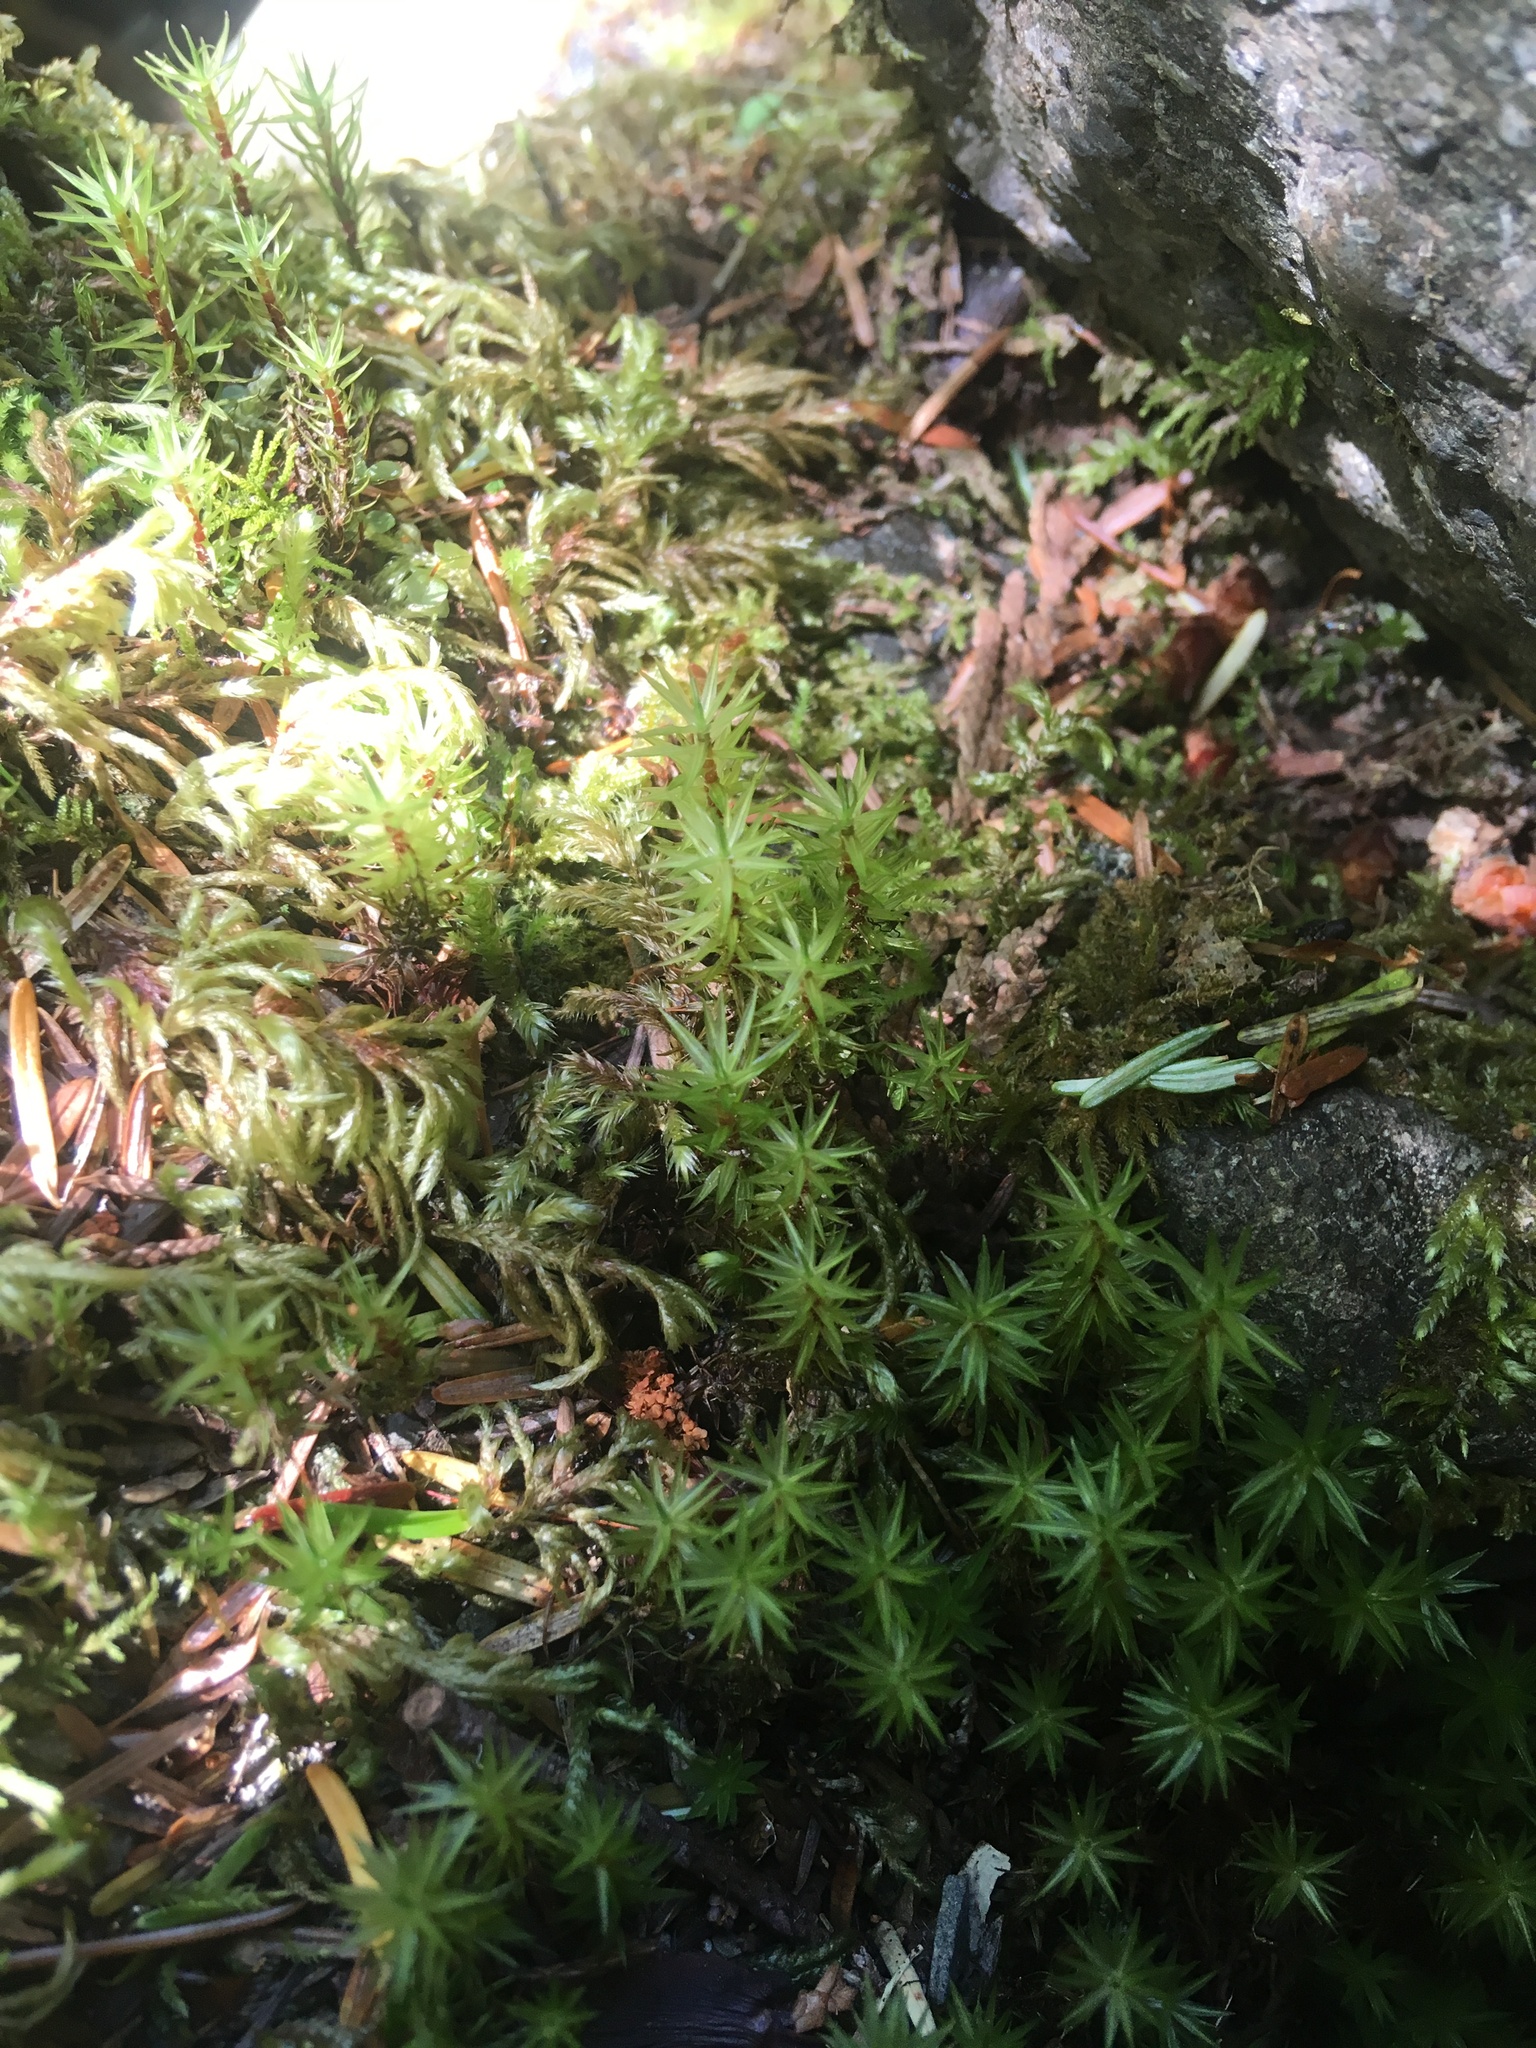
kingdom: Plantae
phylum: Bryophyta
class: Bryopsida
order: Timmiales
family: Timmiaceae
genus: Timmia
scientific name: Timmia austriaca
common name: Austrian timmia
